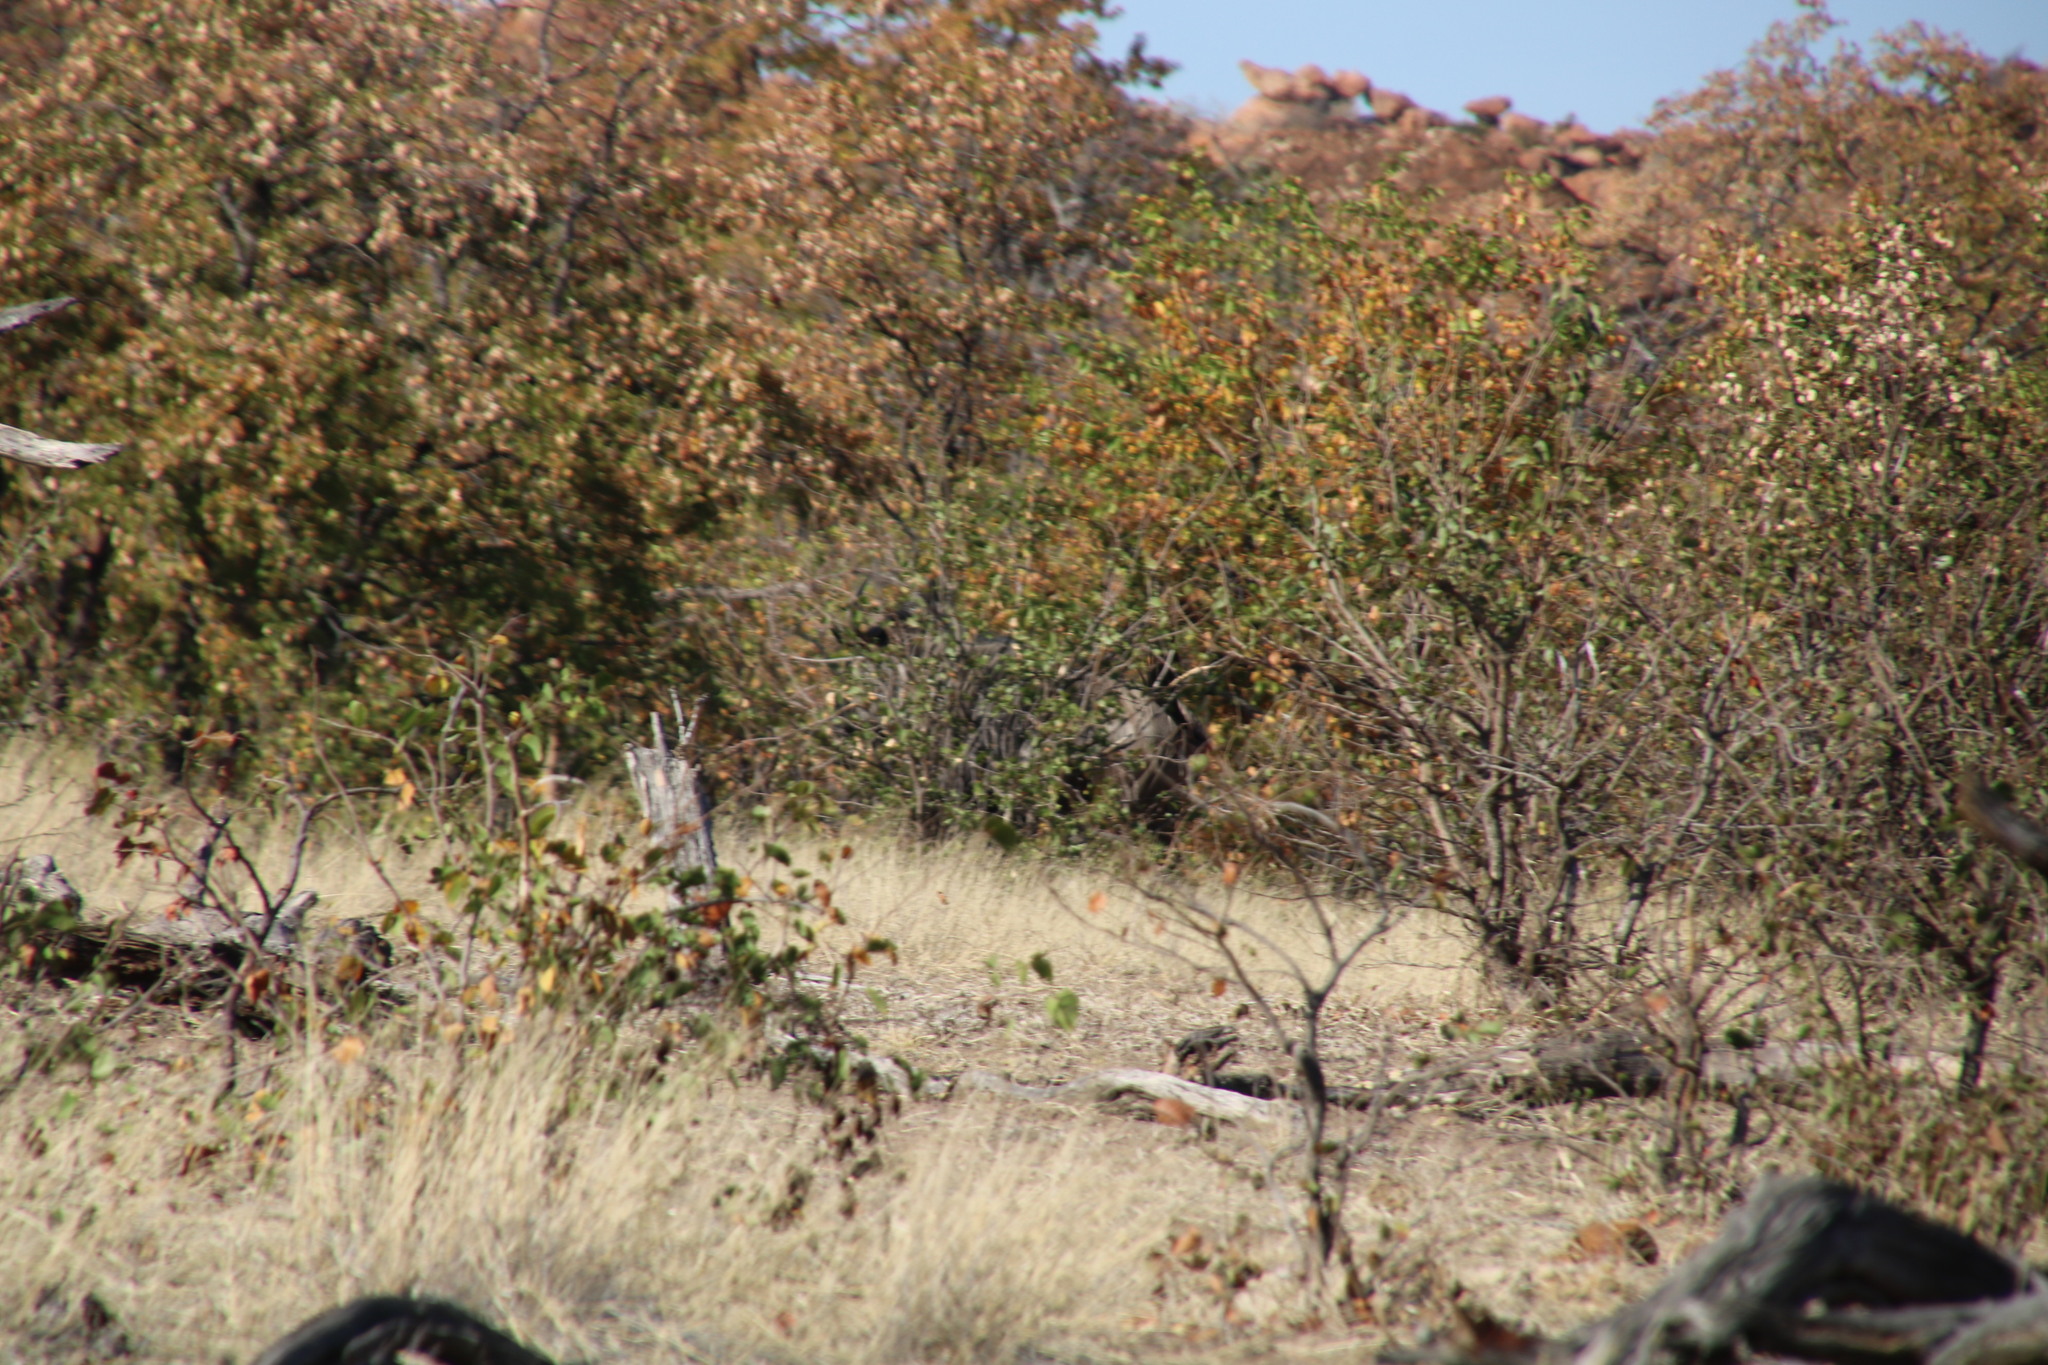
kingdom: Plantae
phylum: Tracheophyta
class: Magnoliopsida
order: Fabales
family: Fabaceae
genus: Colophospermum
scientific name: Colophospermum mopane
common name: Mopane
